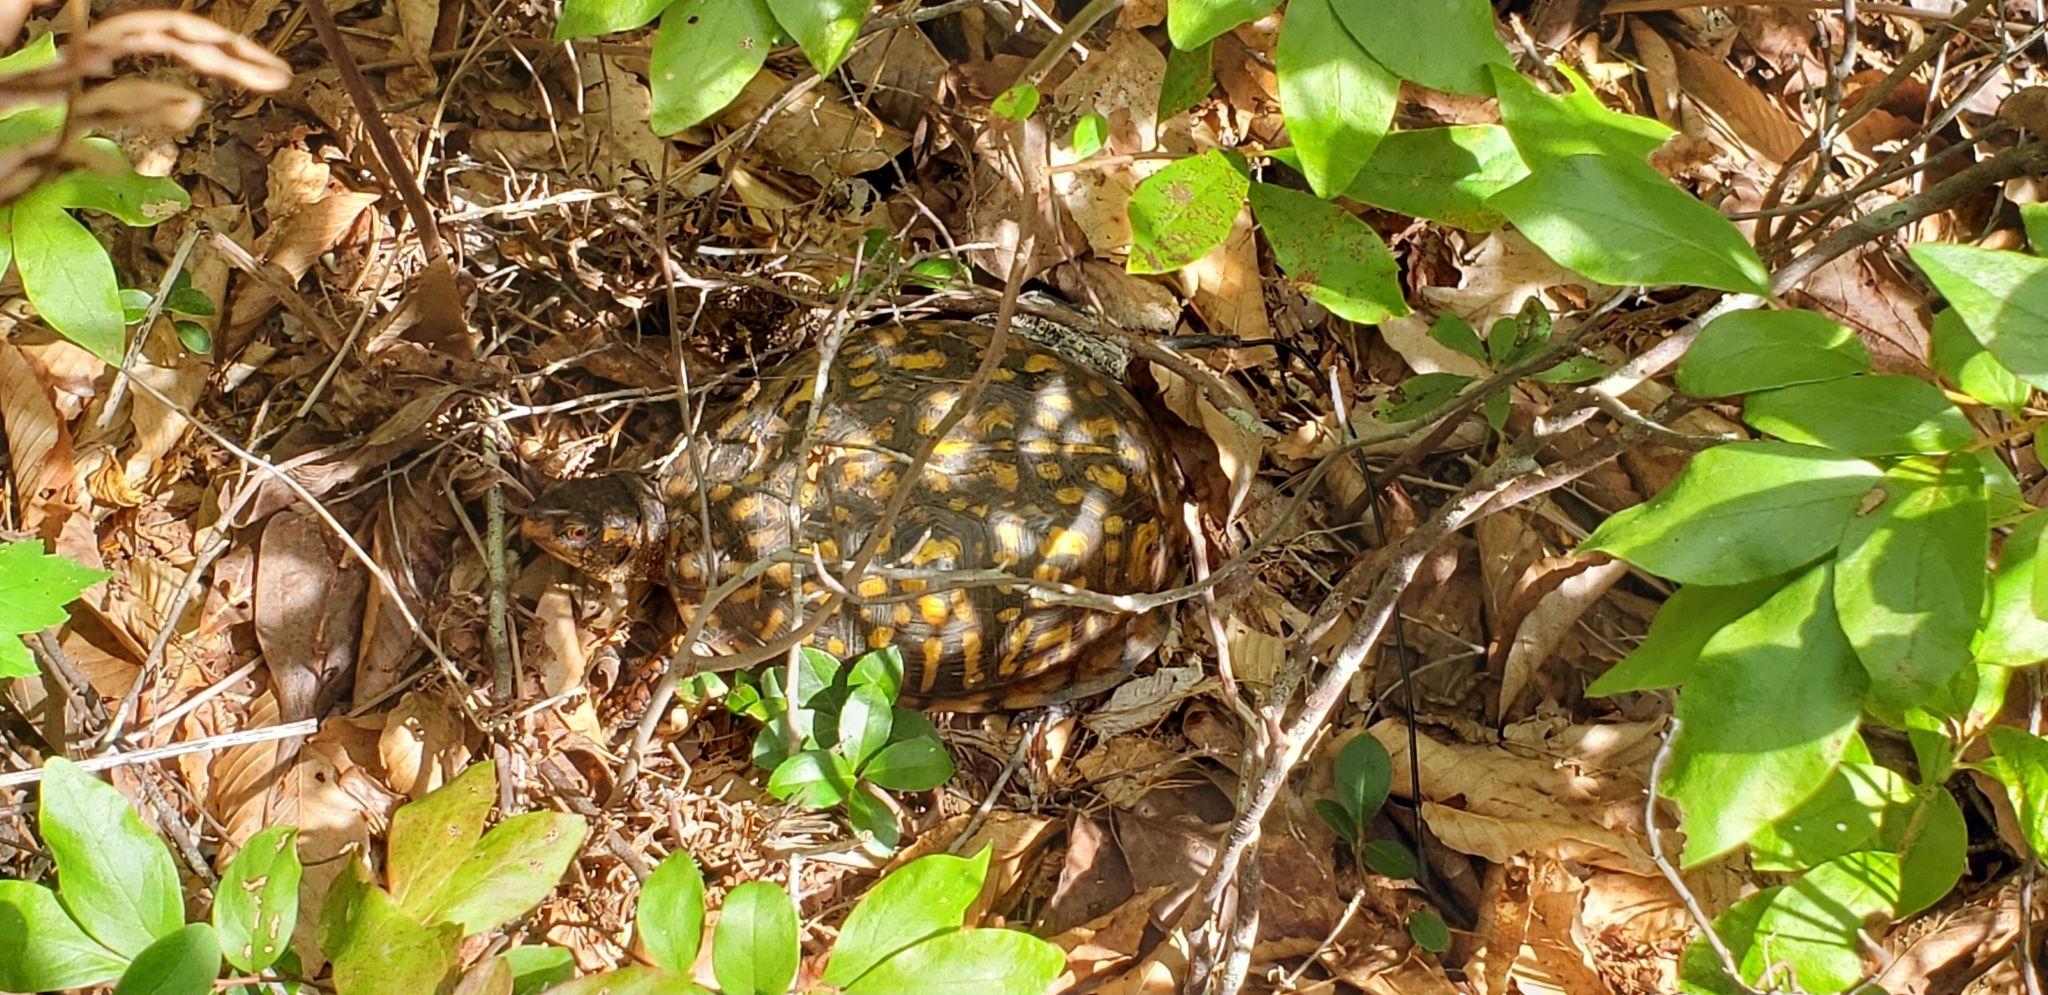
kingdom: Animalia
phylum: Chordata
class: Testudines
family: Emydidae
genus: Terrapene
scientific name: Terrapene carolina
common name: Common box turtle
